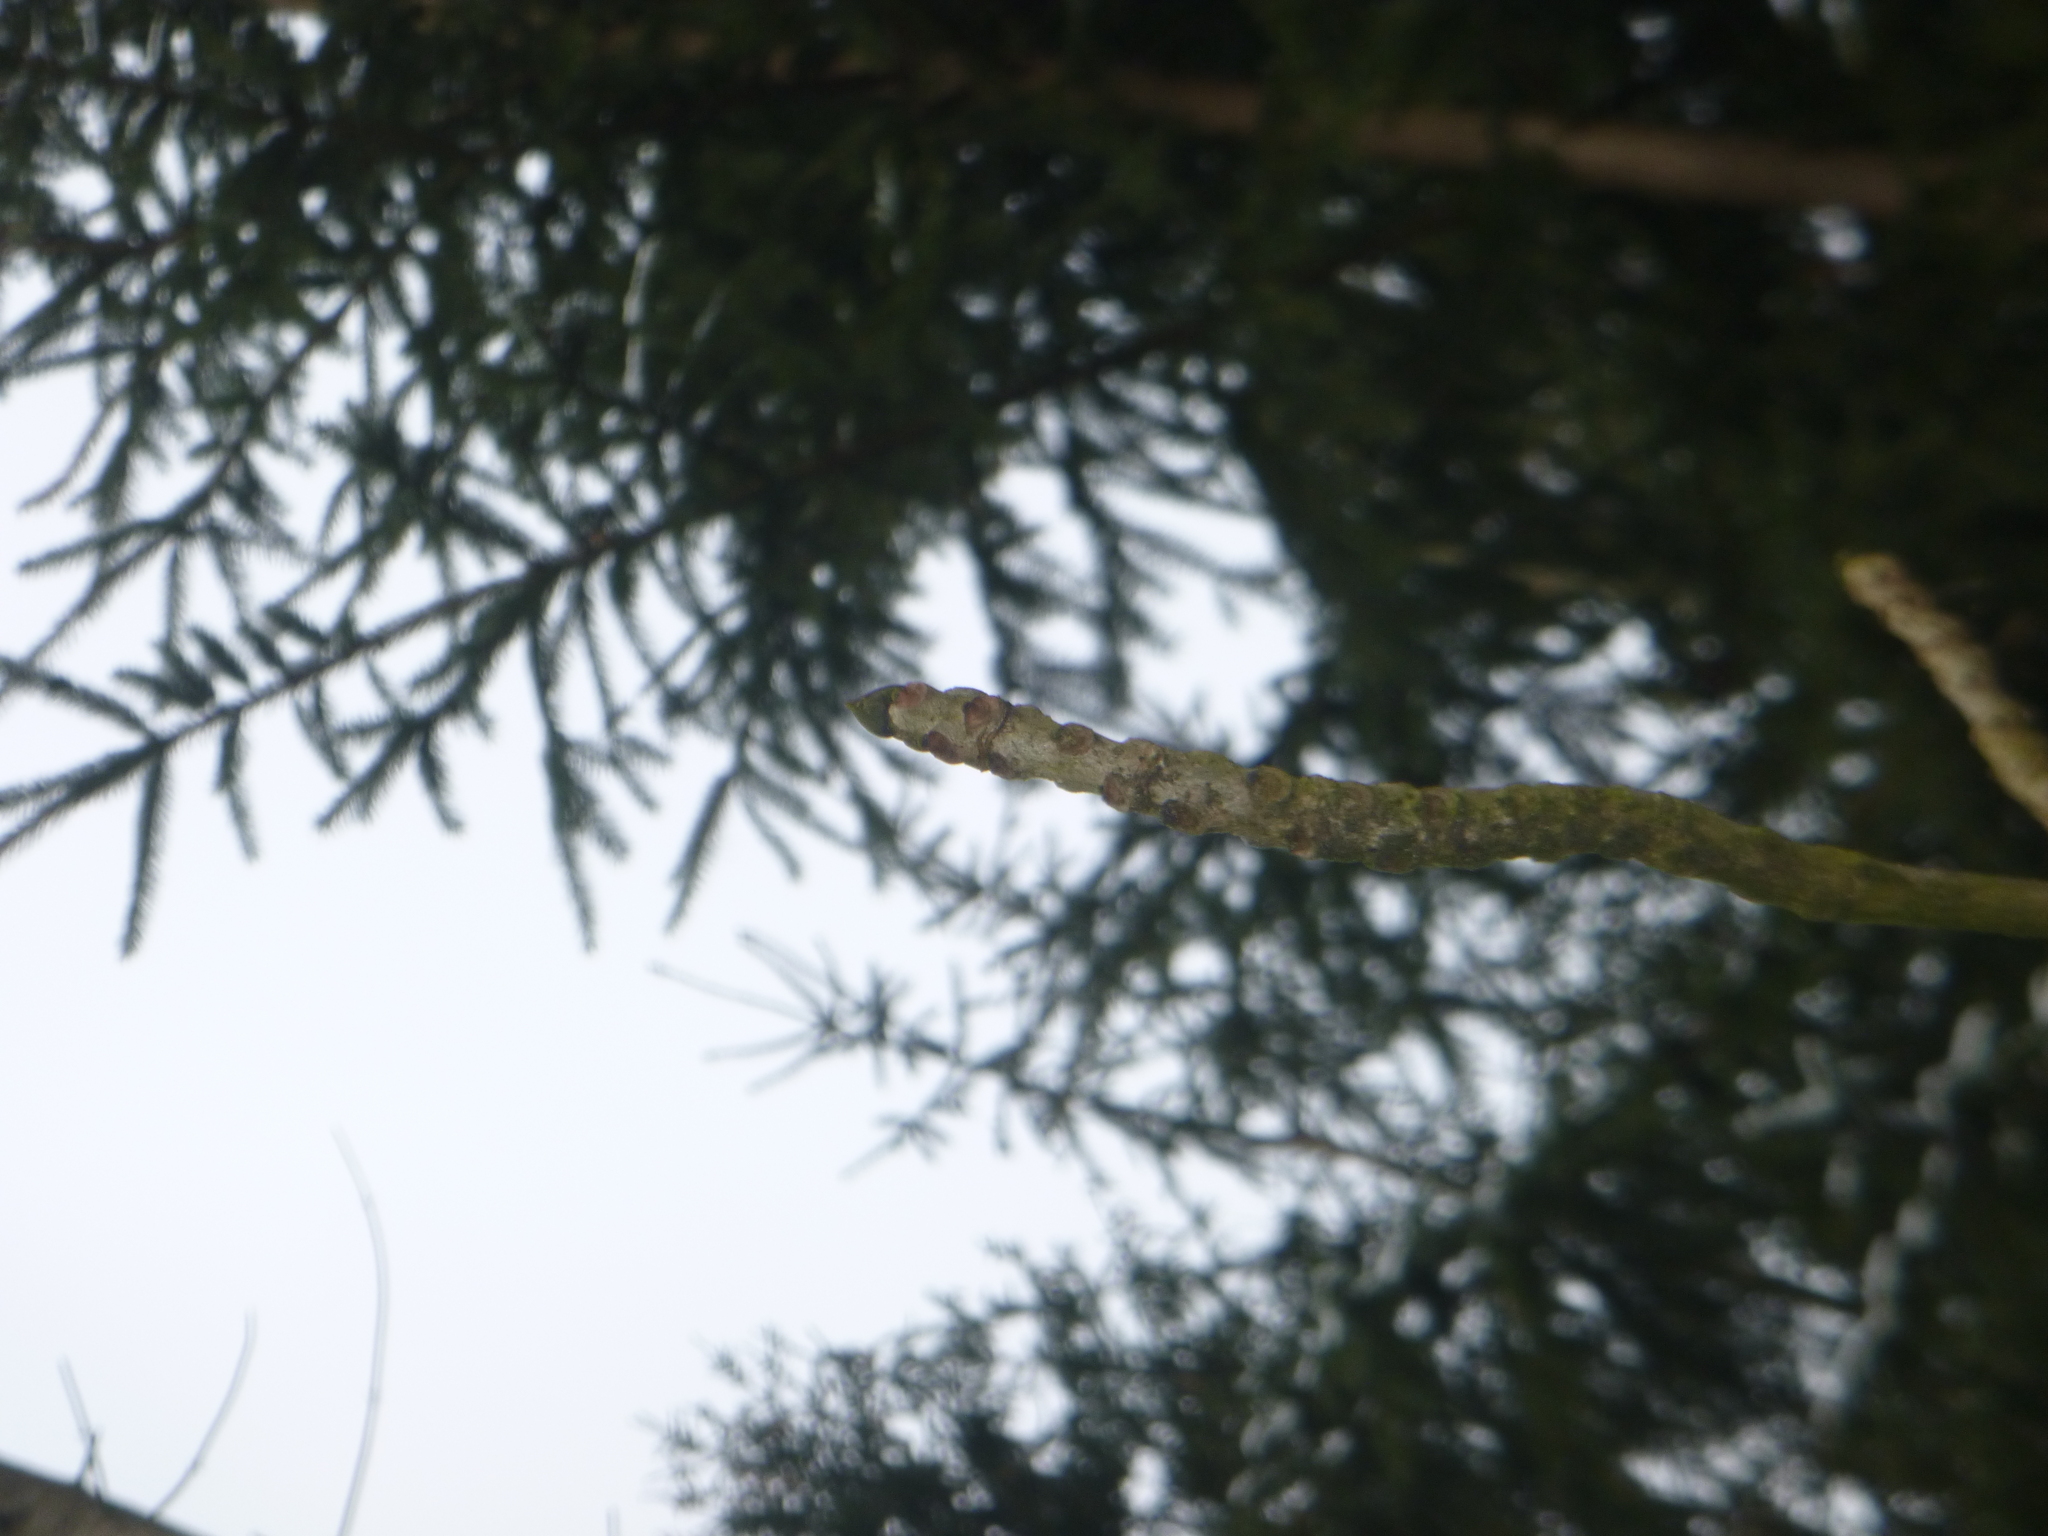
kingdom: Plantae
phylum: Tracheophyta
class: Magnoliopsida
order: Lamiales
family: Oleaceae
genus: Fraxinus
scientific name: Fraxinus excelsior
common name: European ash
